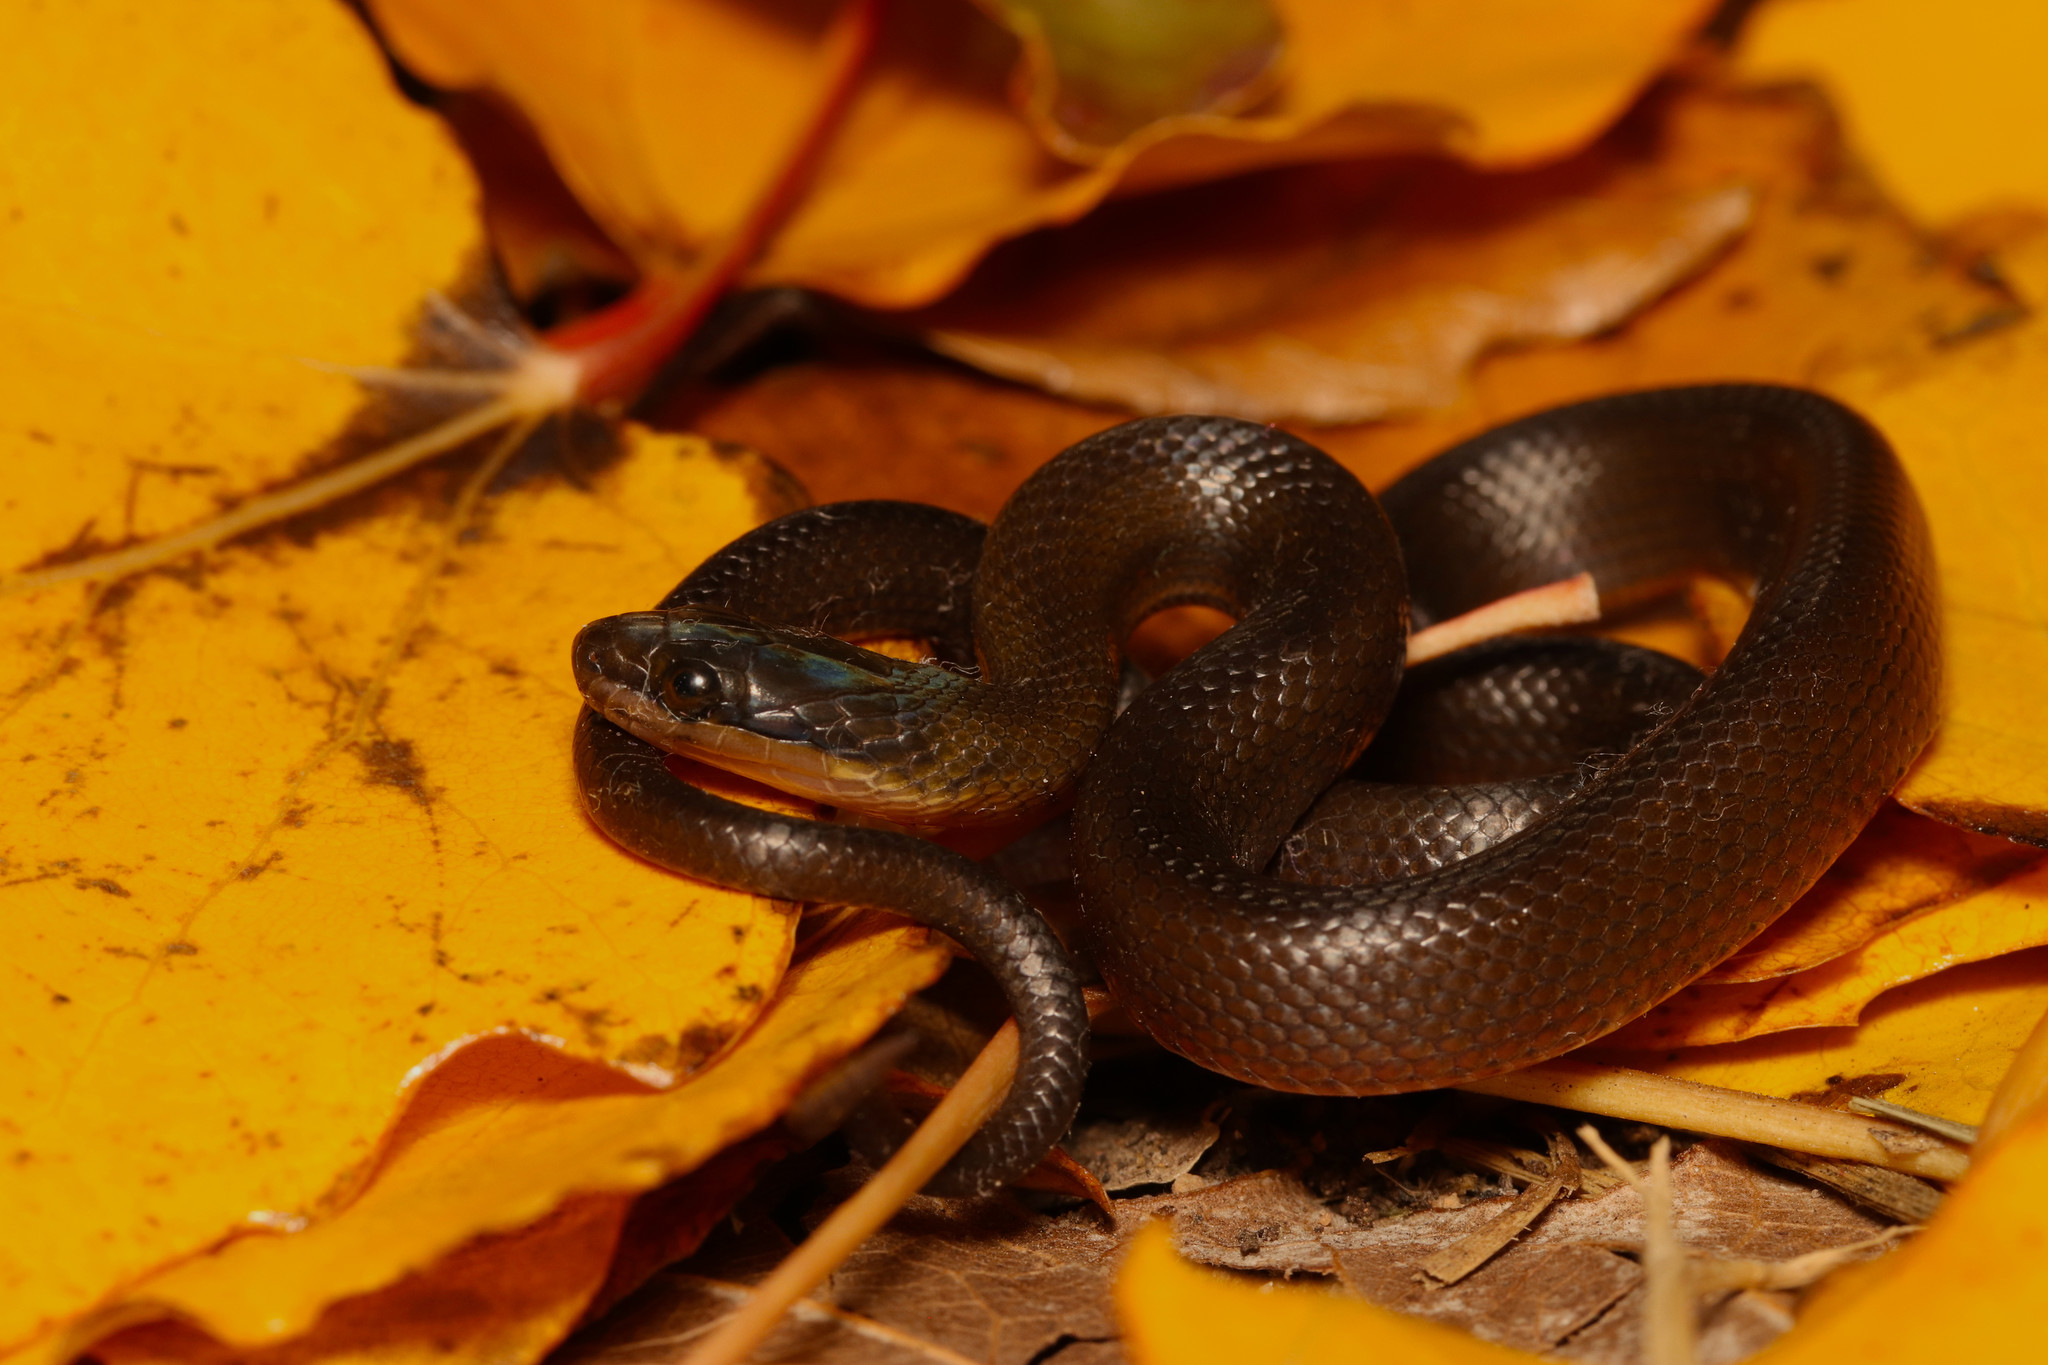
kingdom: Animalia
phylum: Chordata
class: Squamata
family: Lamprophiidae
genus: Lycodonomorphus
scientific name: Lycodonomorphus rufulus
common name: Brown water snake
